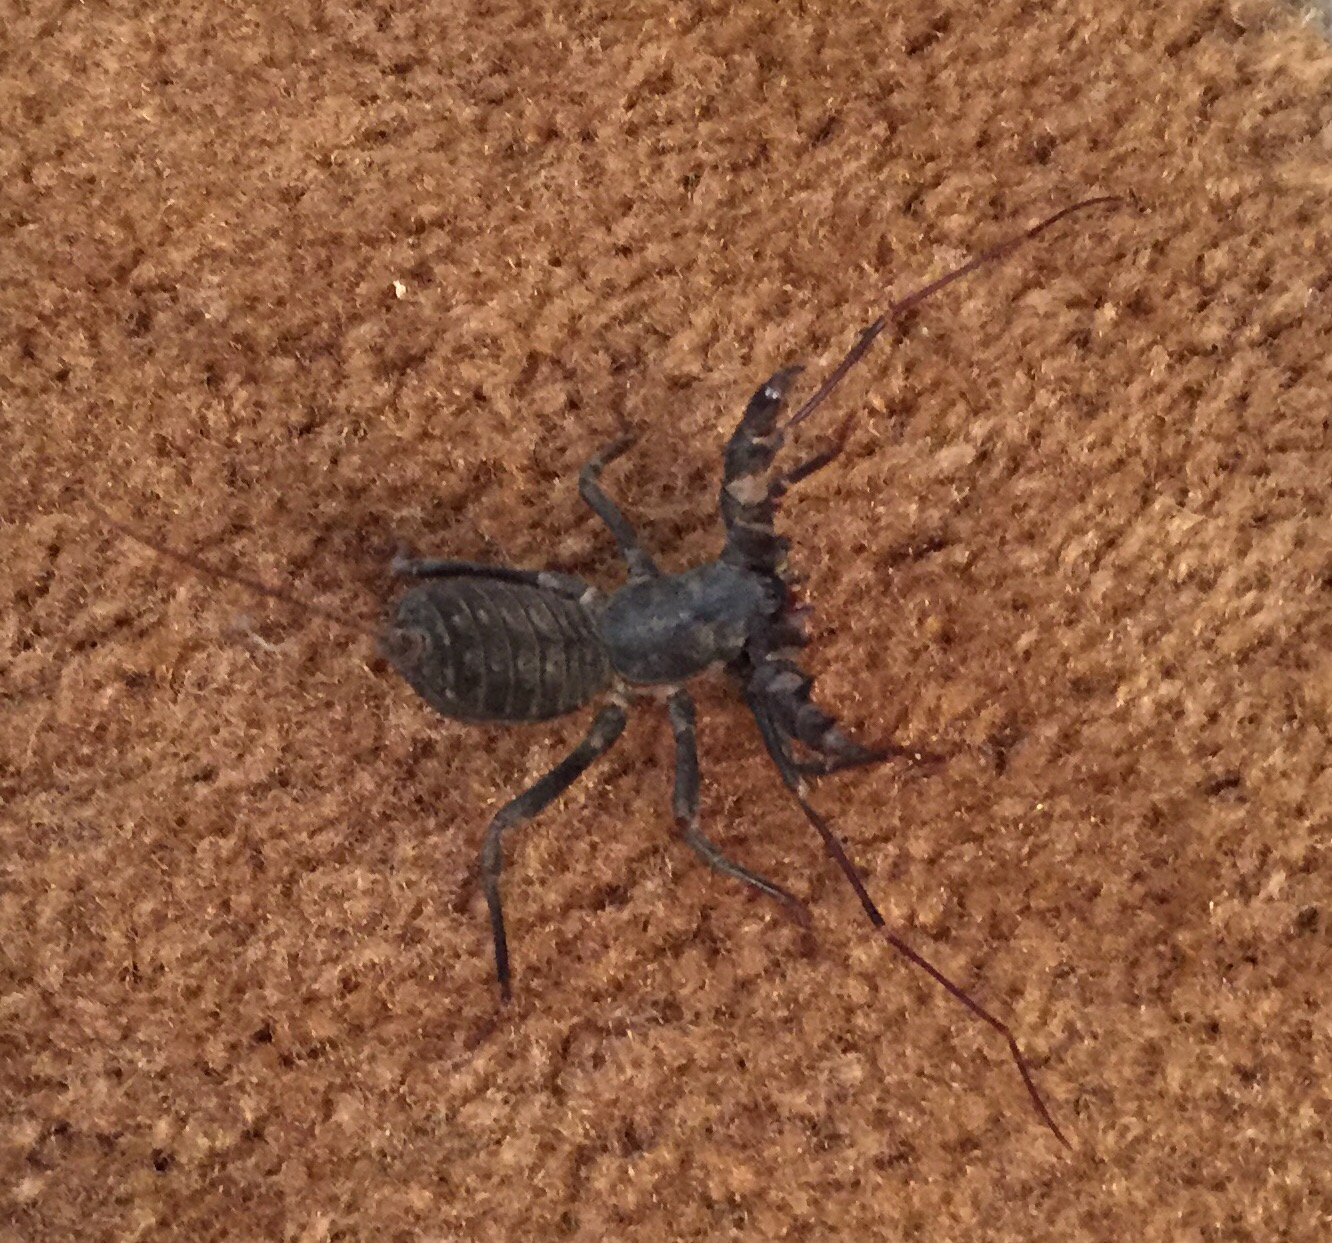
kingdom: Animalia
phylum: Arthropoda
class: Arachnida
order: Uropygi
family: Thelyphonidae
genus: Mastigoproctus
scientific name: Mastigoproctus giganteus
